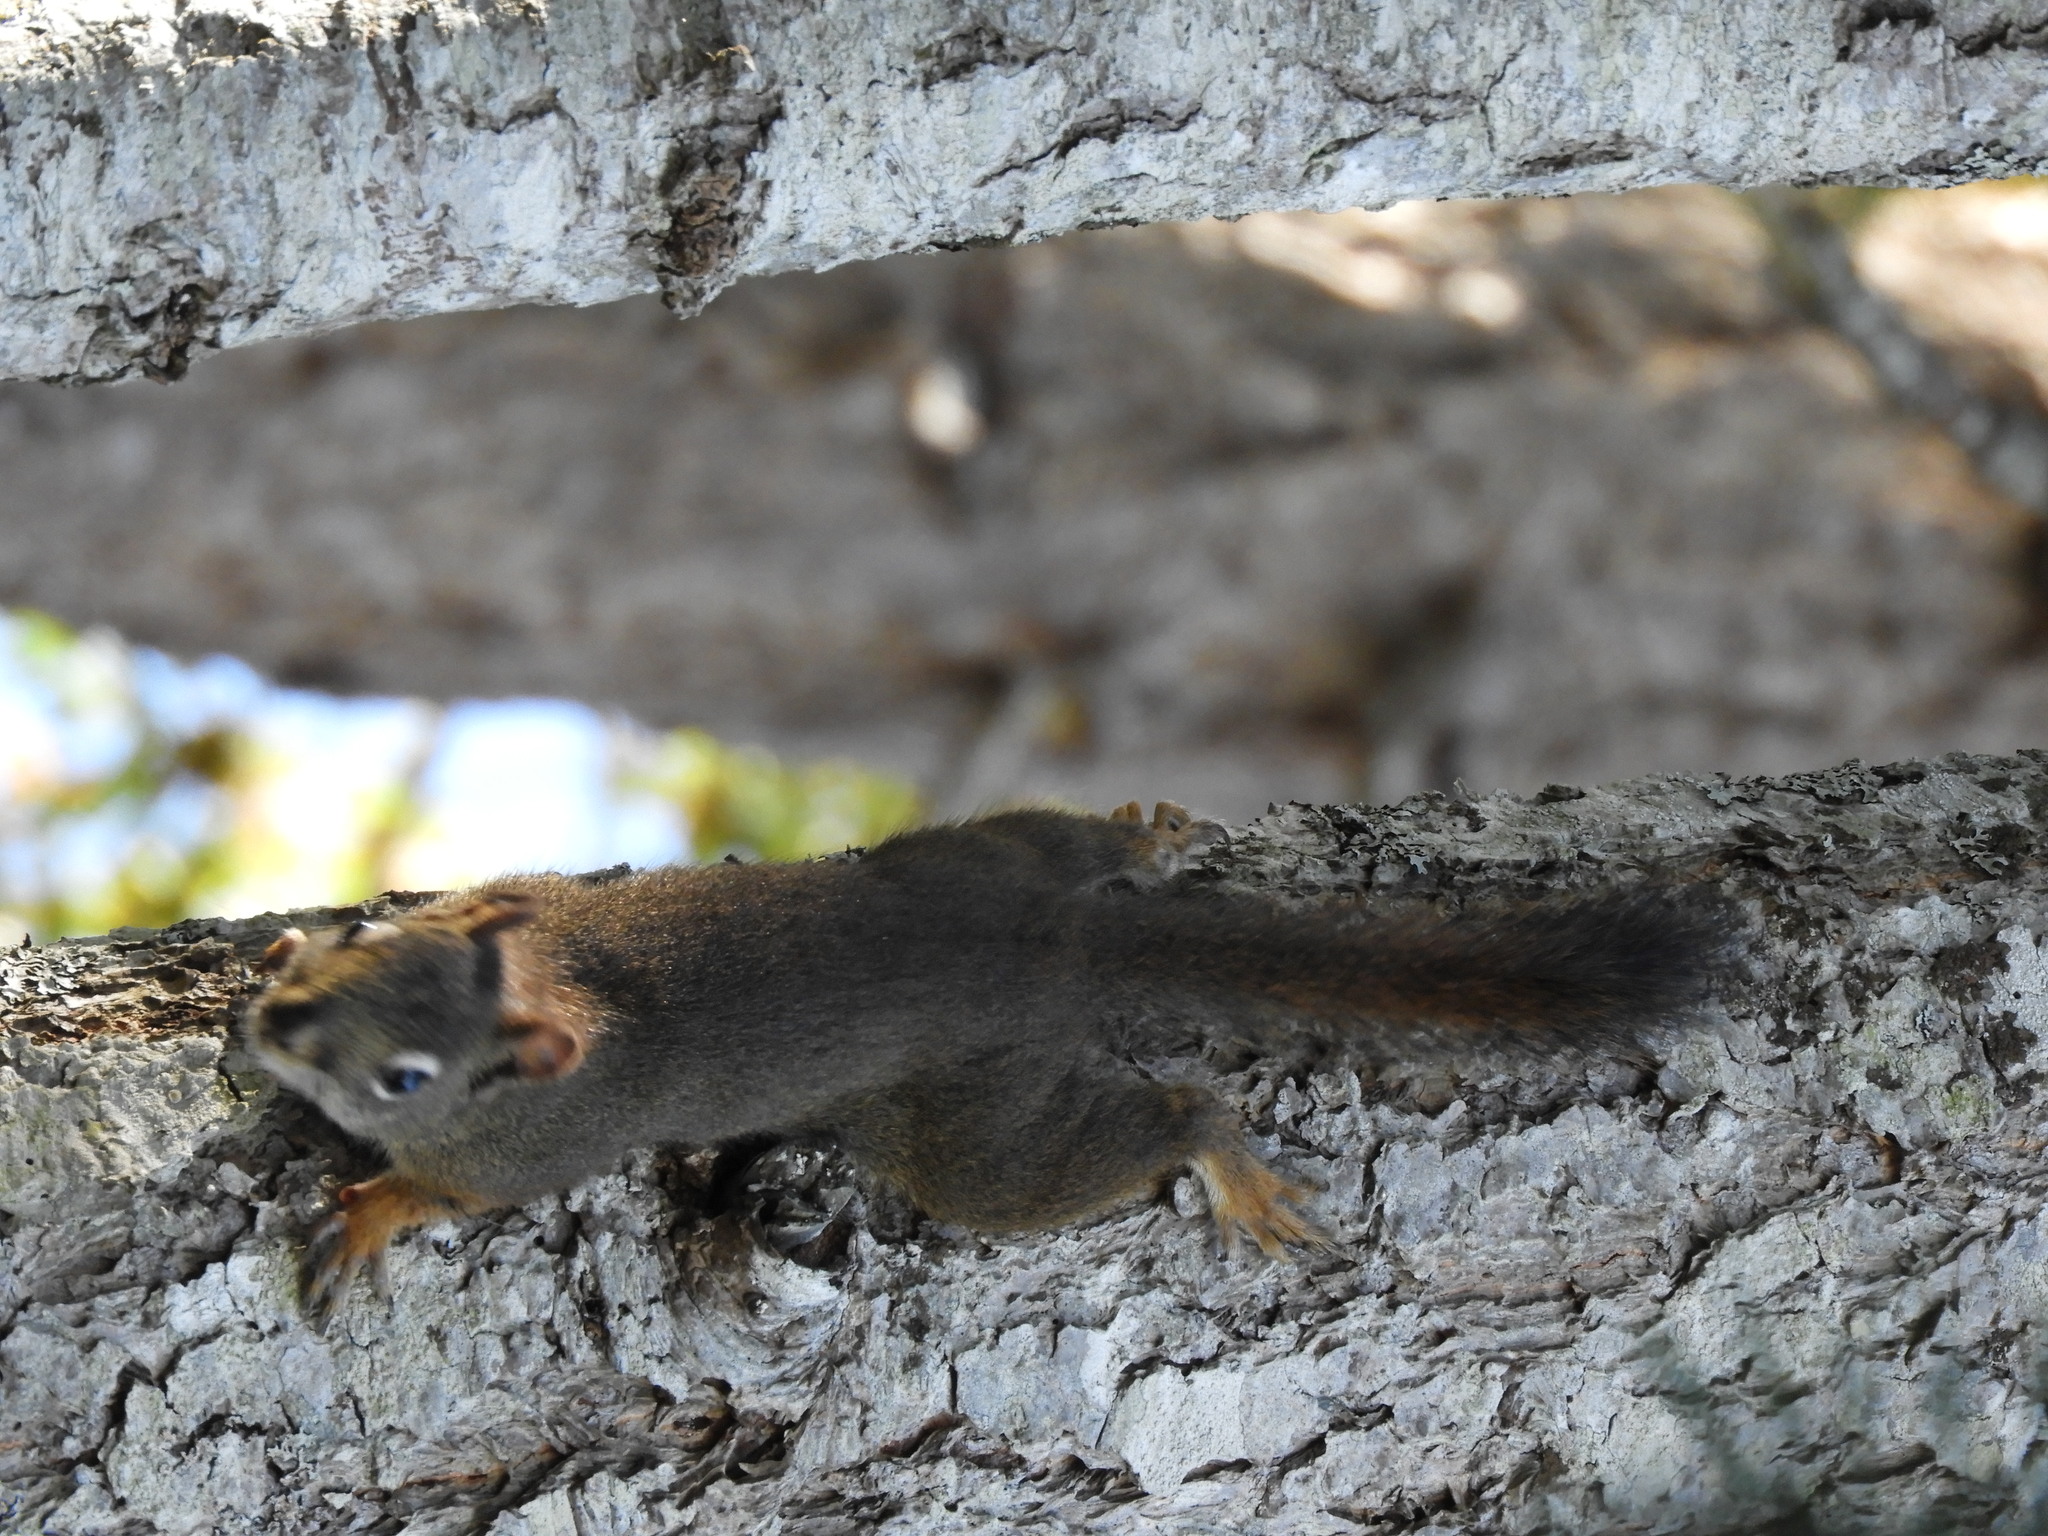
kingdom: Animalia
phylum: Chordata
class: Mammalia
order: Rodentia
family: Sciuridae
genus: Tamiasciurus
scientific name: Tamiasciurus hudsonicus
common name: Red squirrel
